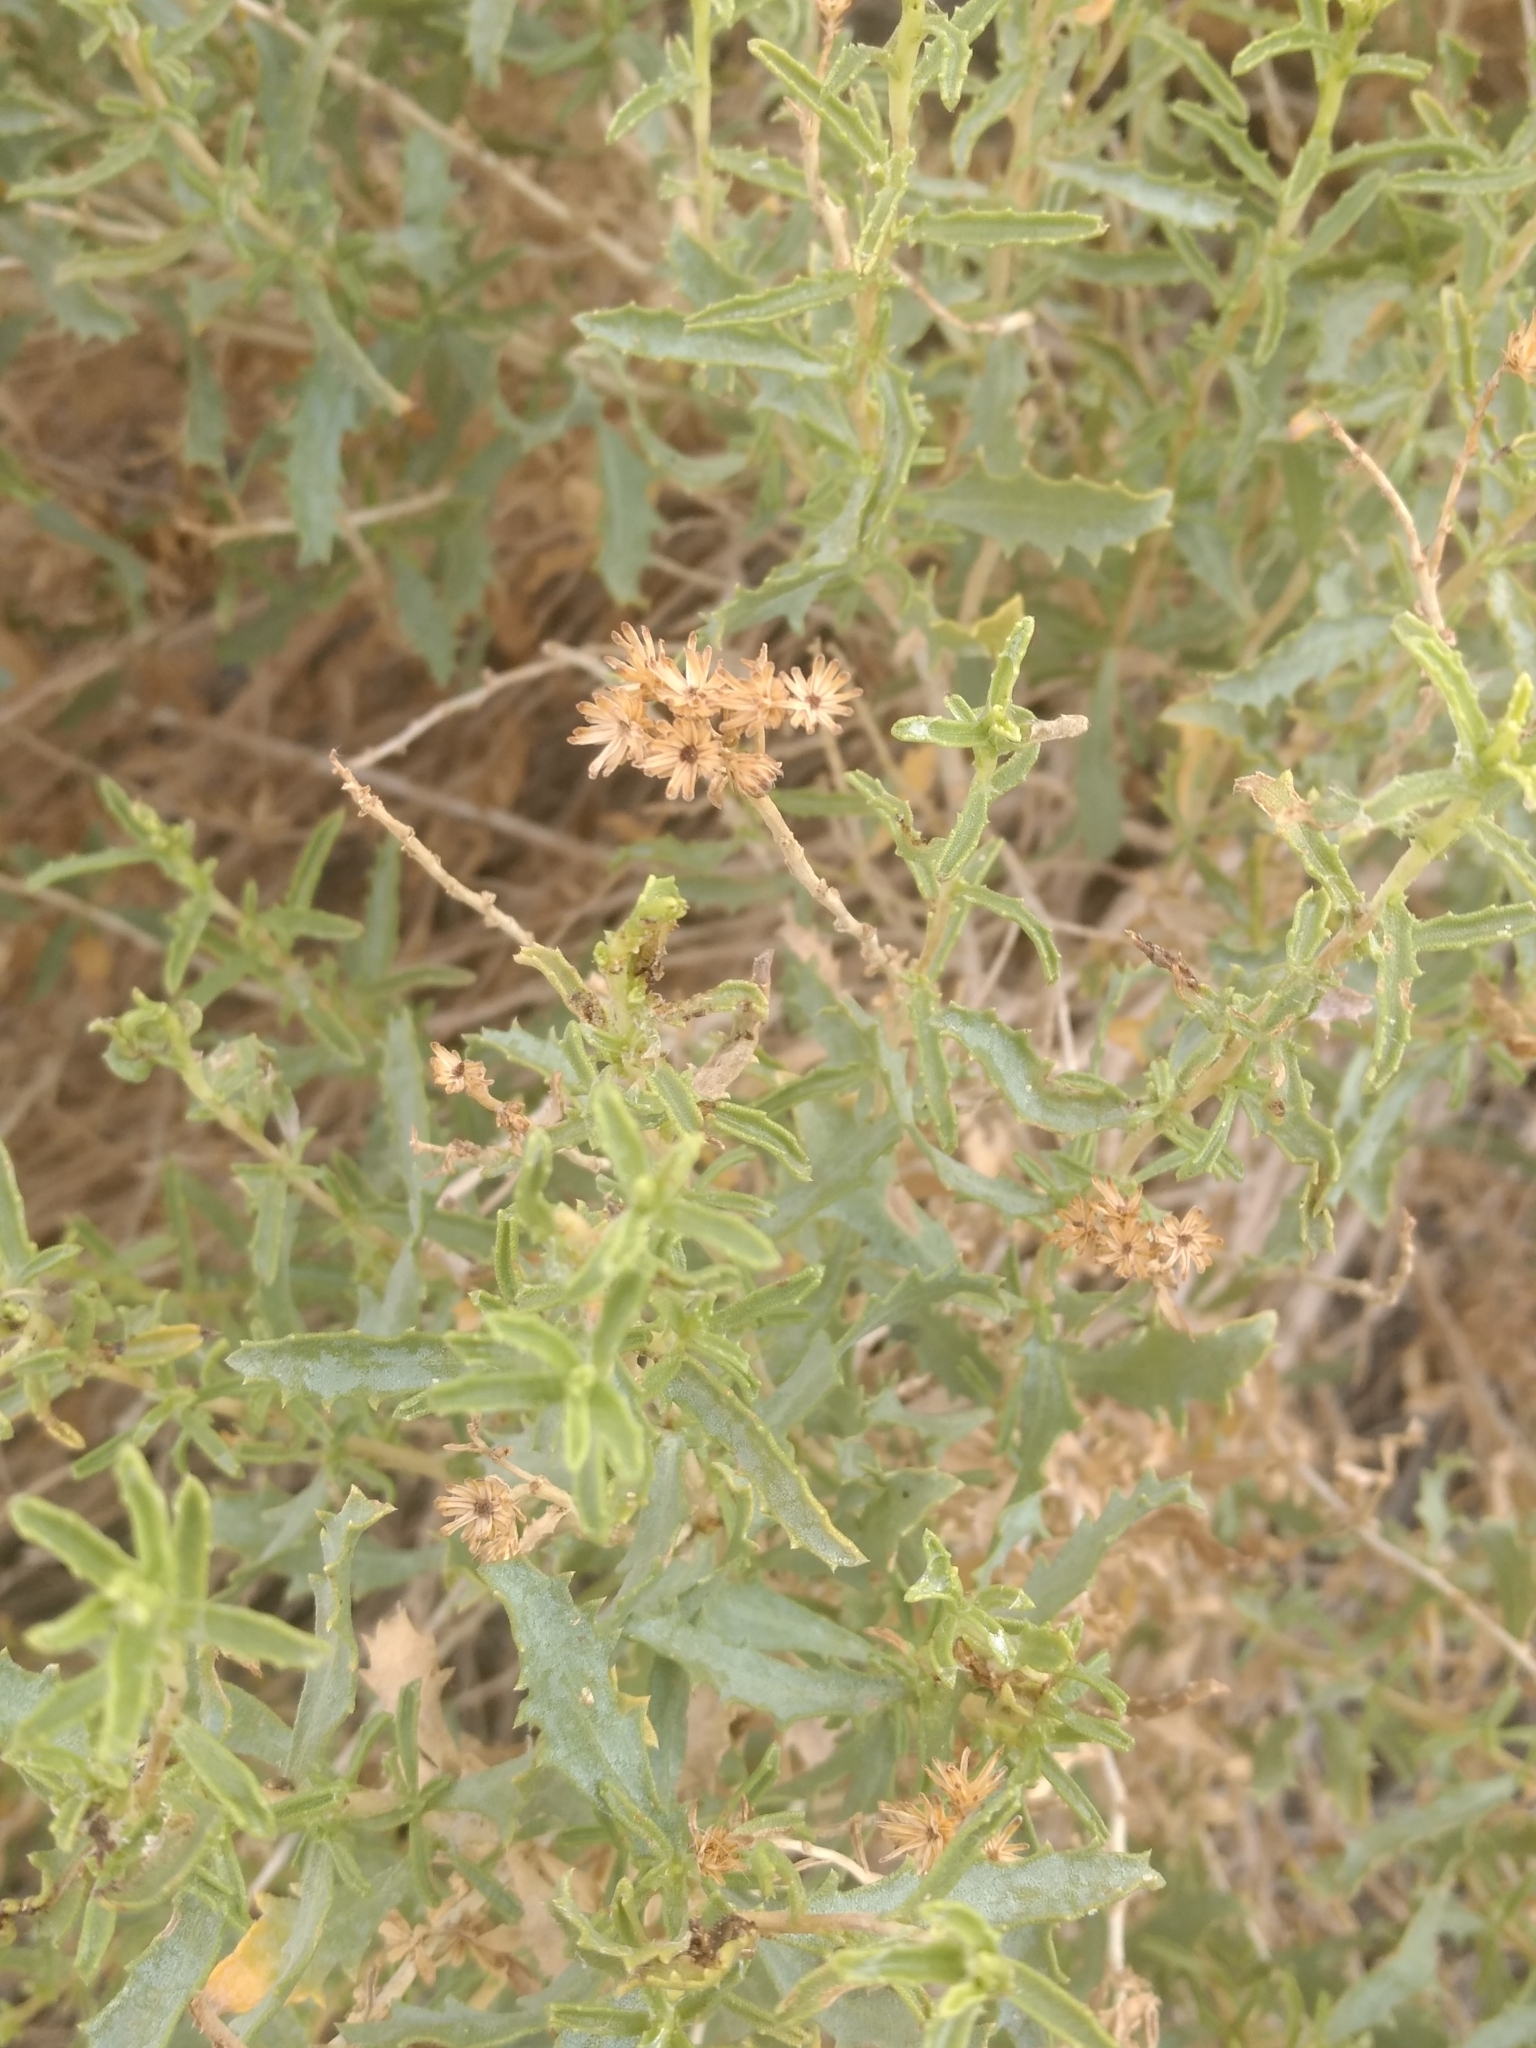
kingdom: Plantae
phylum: Tracheophyta
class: Magnoliopsida
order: Asterales
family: Asteraceae
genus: Isocoma
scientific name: Isocoma acradenia
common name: Alkali jimmyweed
